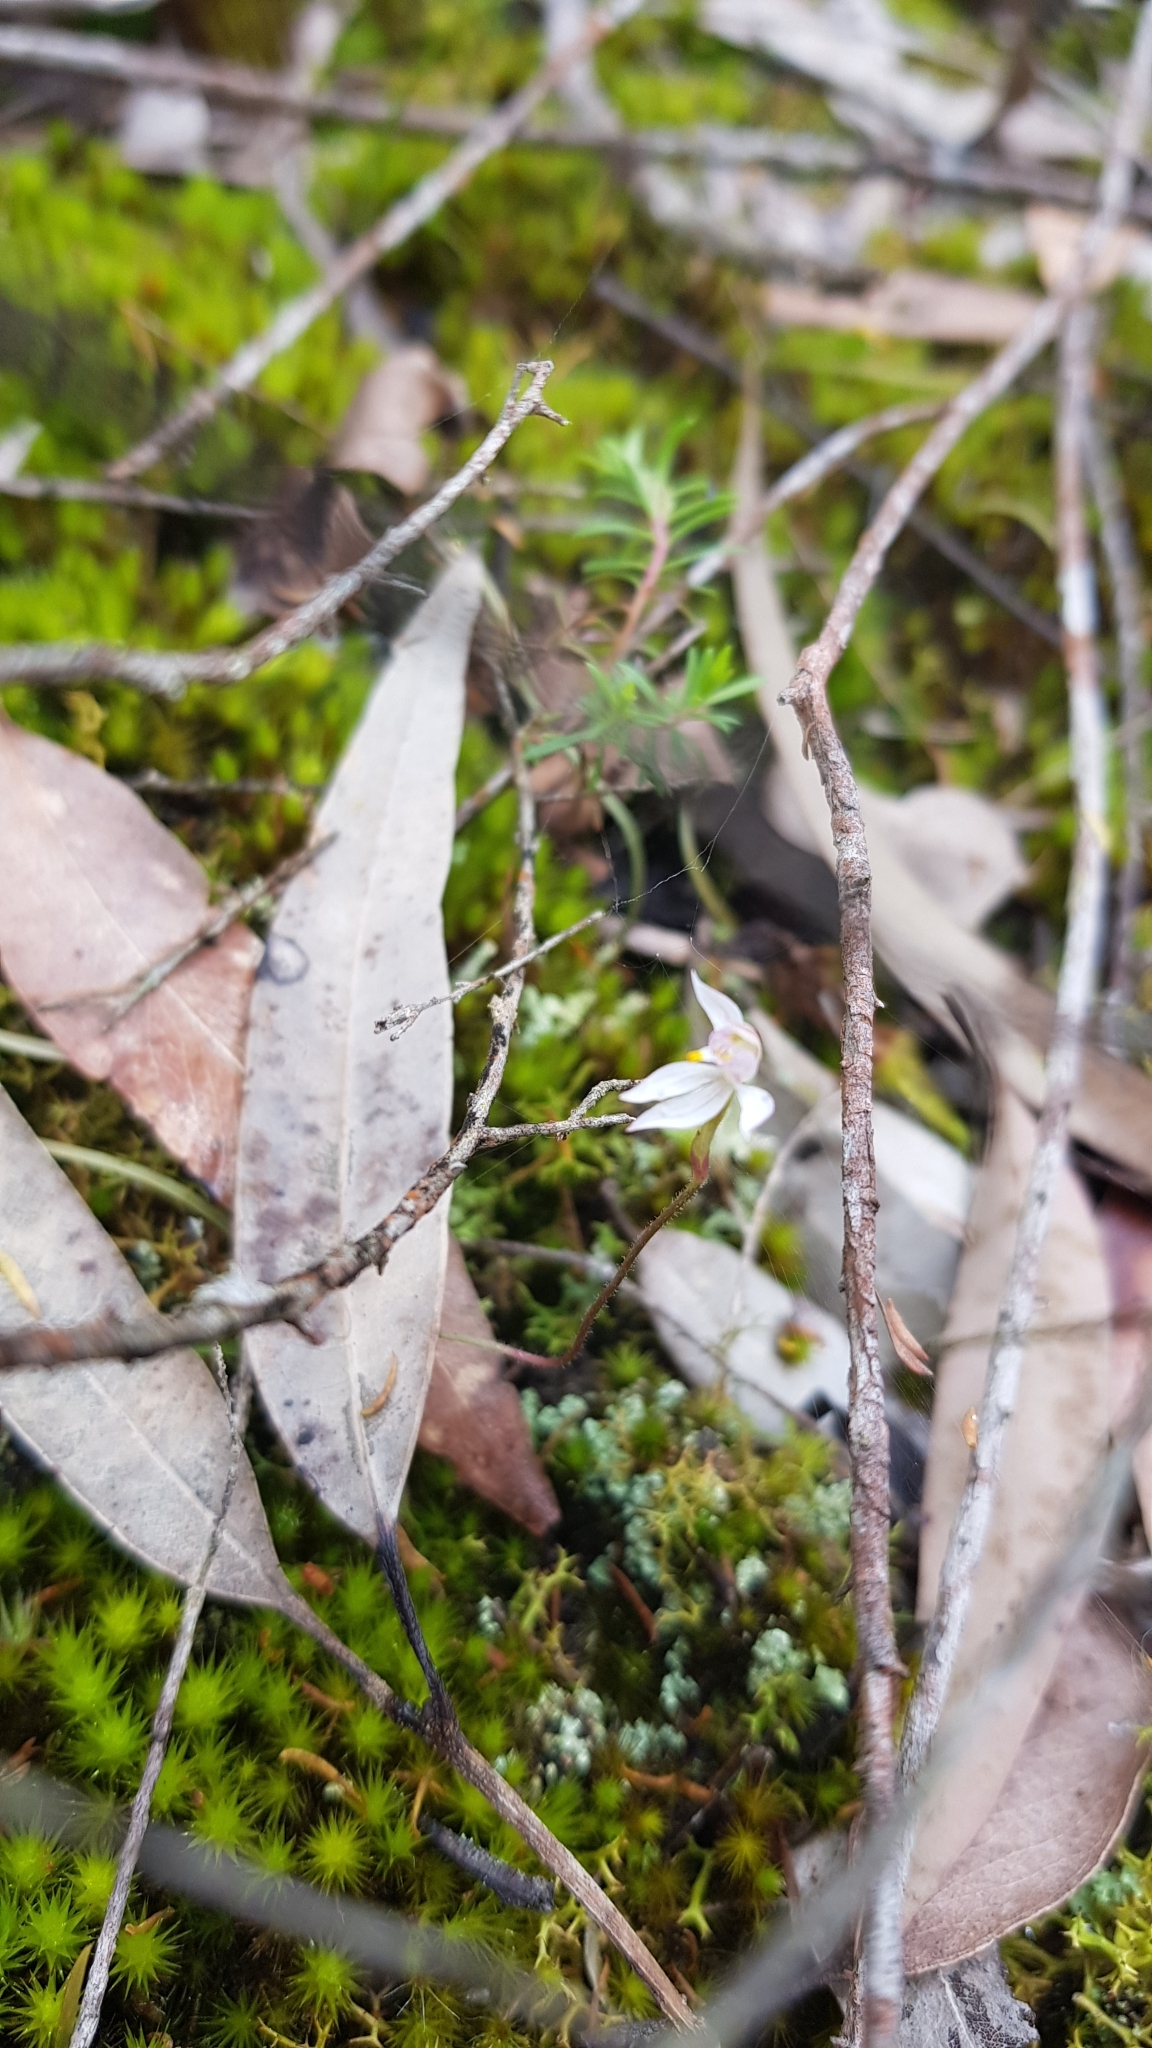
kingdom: Plantae
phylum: Tracheophyta
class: Liliopsida
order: Asparagales
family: Orchidaceae
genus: Caladenia
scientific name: Caladenia alata
